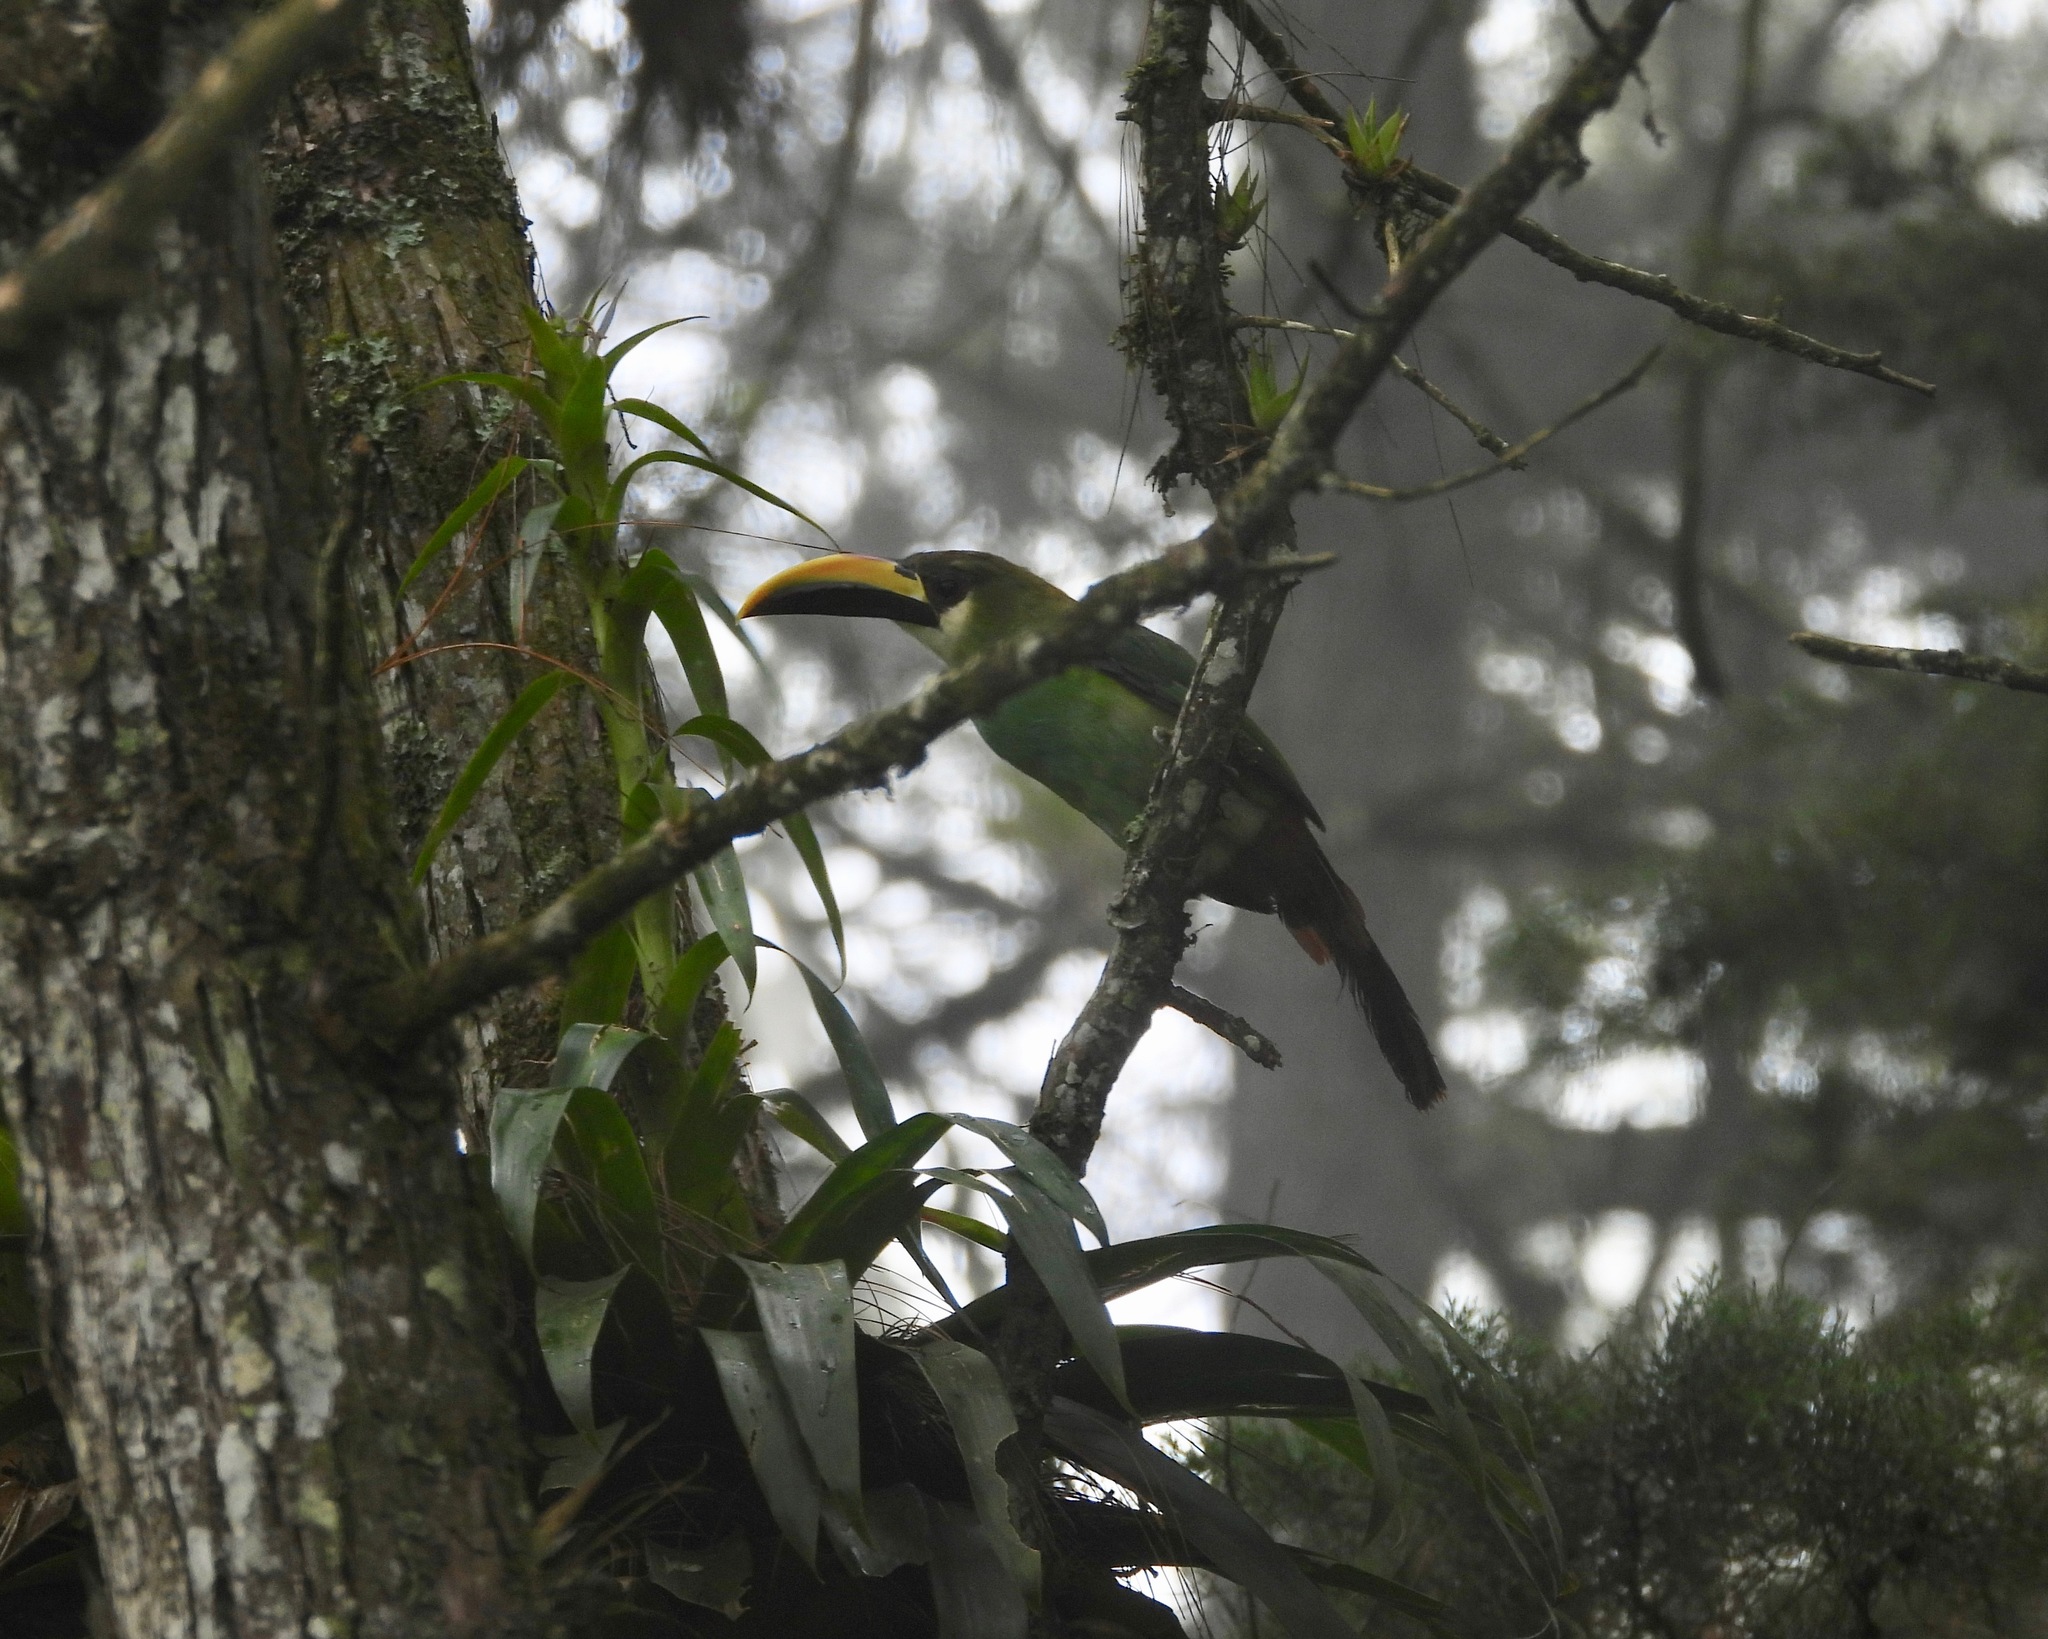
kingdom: Animalia
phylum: Chordata
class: Aves
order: Piciformes
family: Ramphastidae
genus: Aulacorhynchus
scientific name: Aulacorhynchus prasinus
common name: Emerald toucanet
